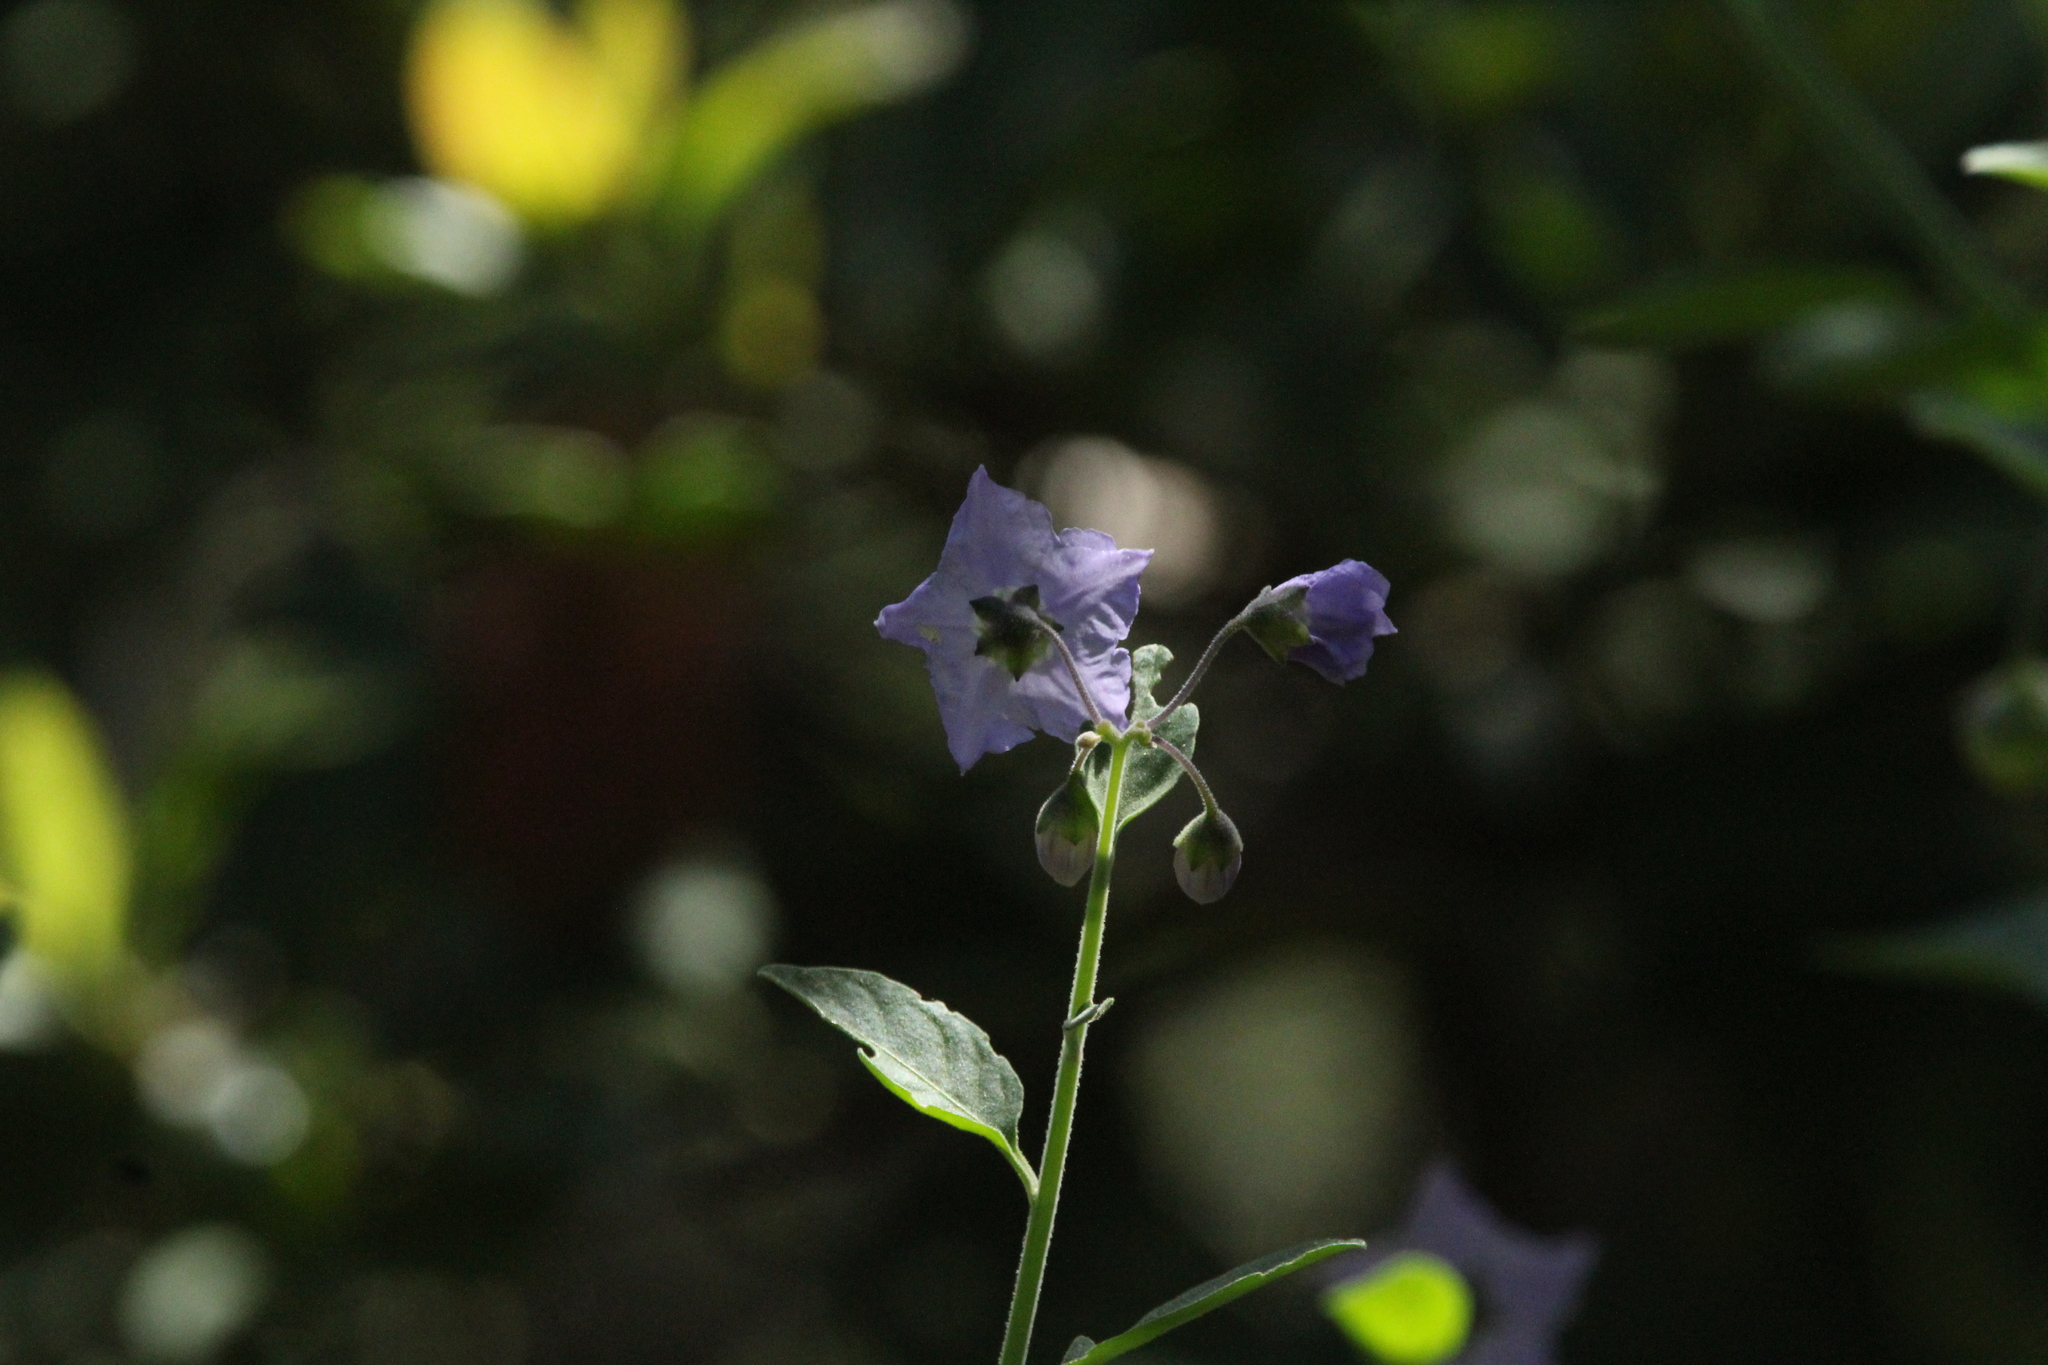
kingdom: Plantae
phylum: Tracheophyta
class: Magnoliopsida
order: Solanales
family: Solanaceae
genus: Solanum
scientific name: Solanum umbelliferum
